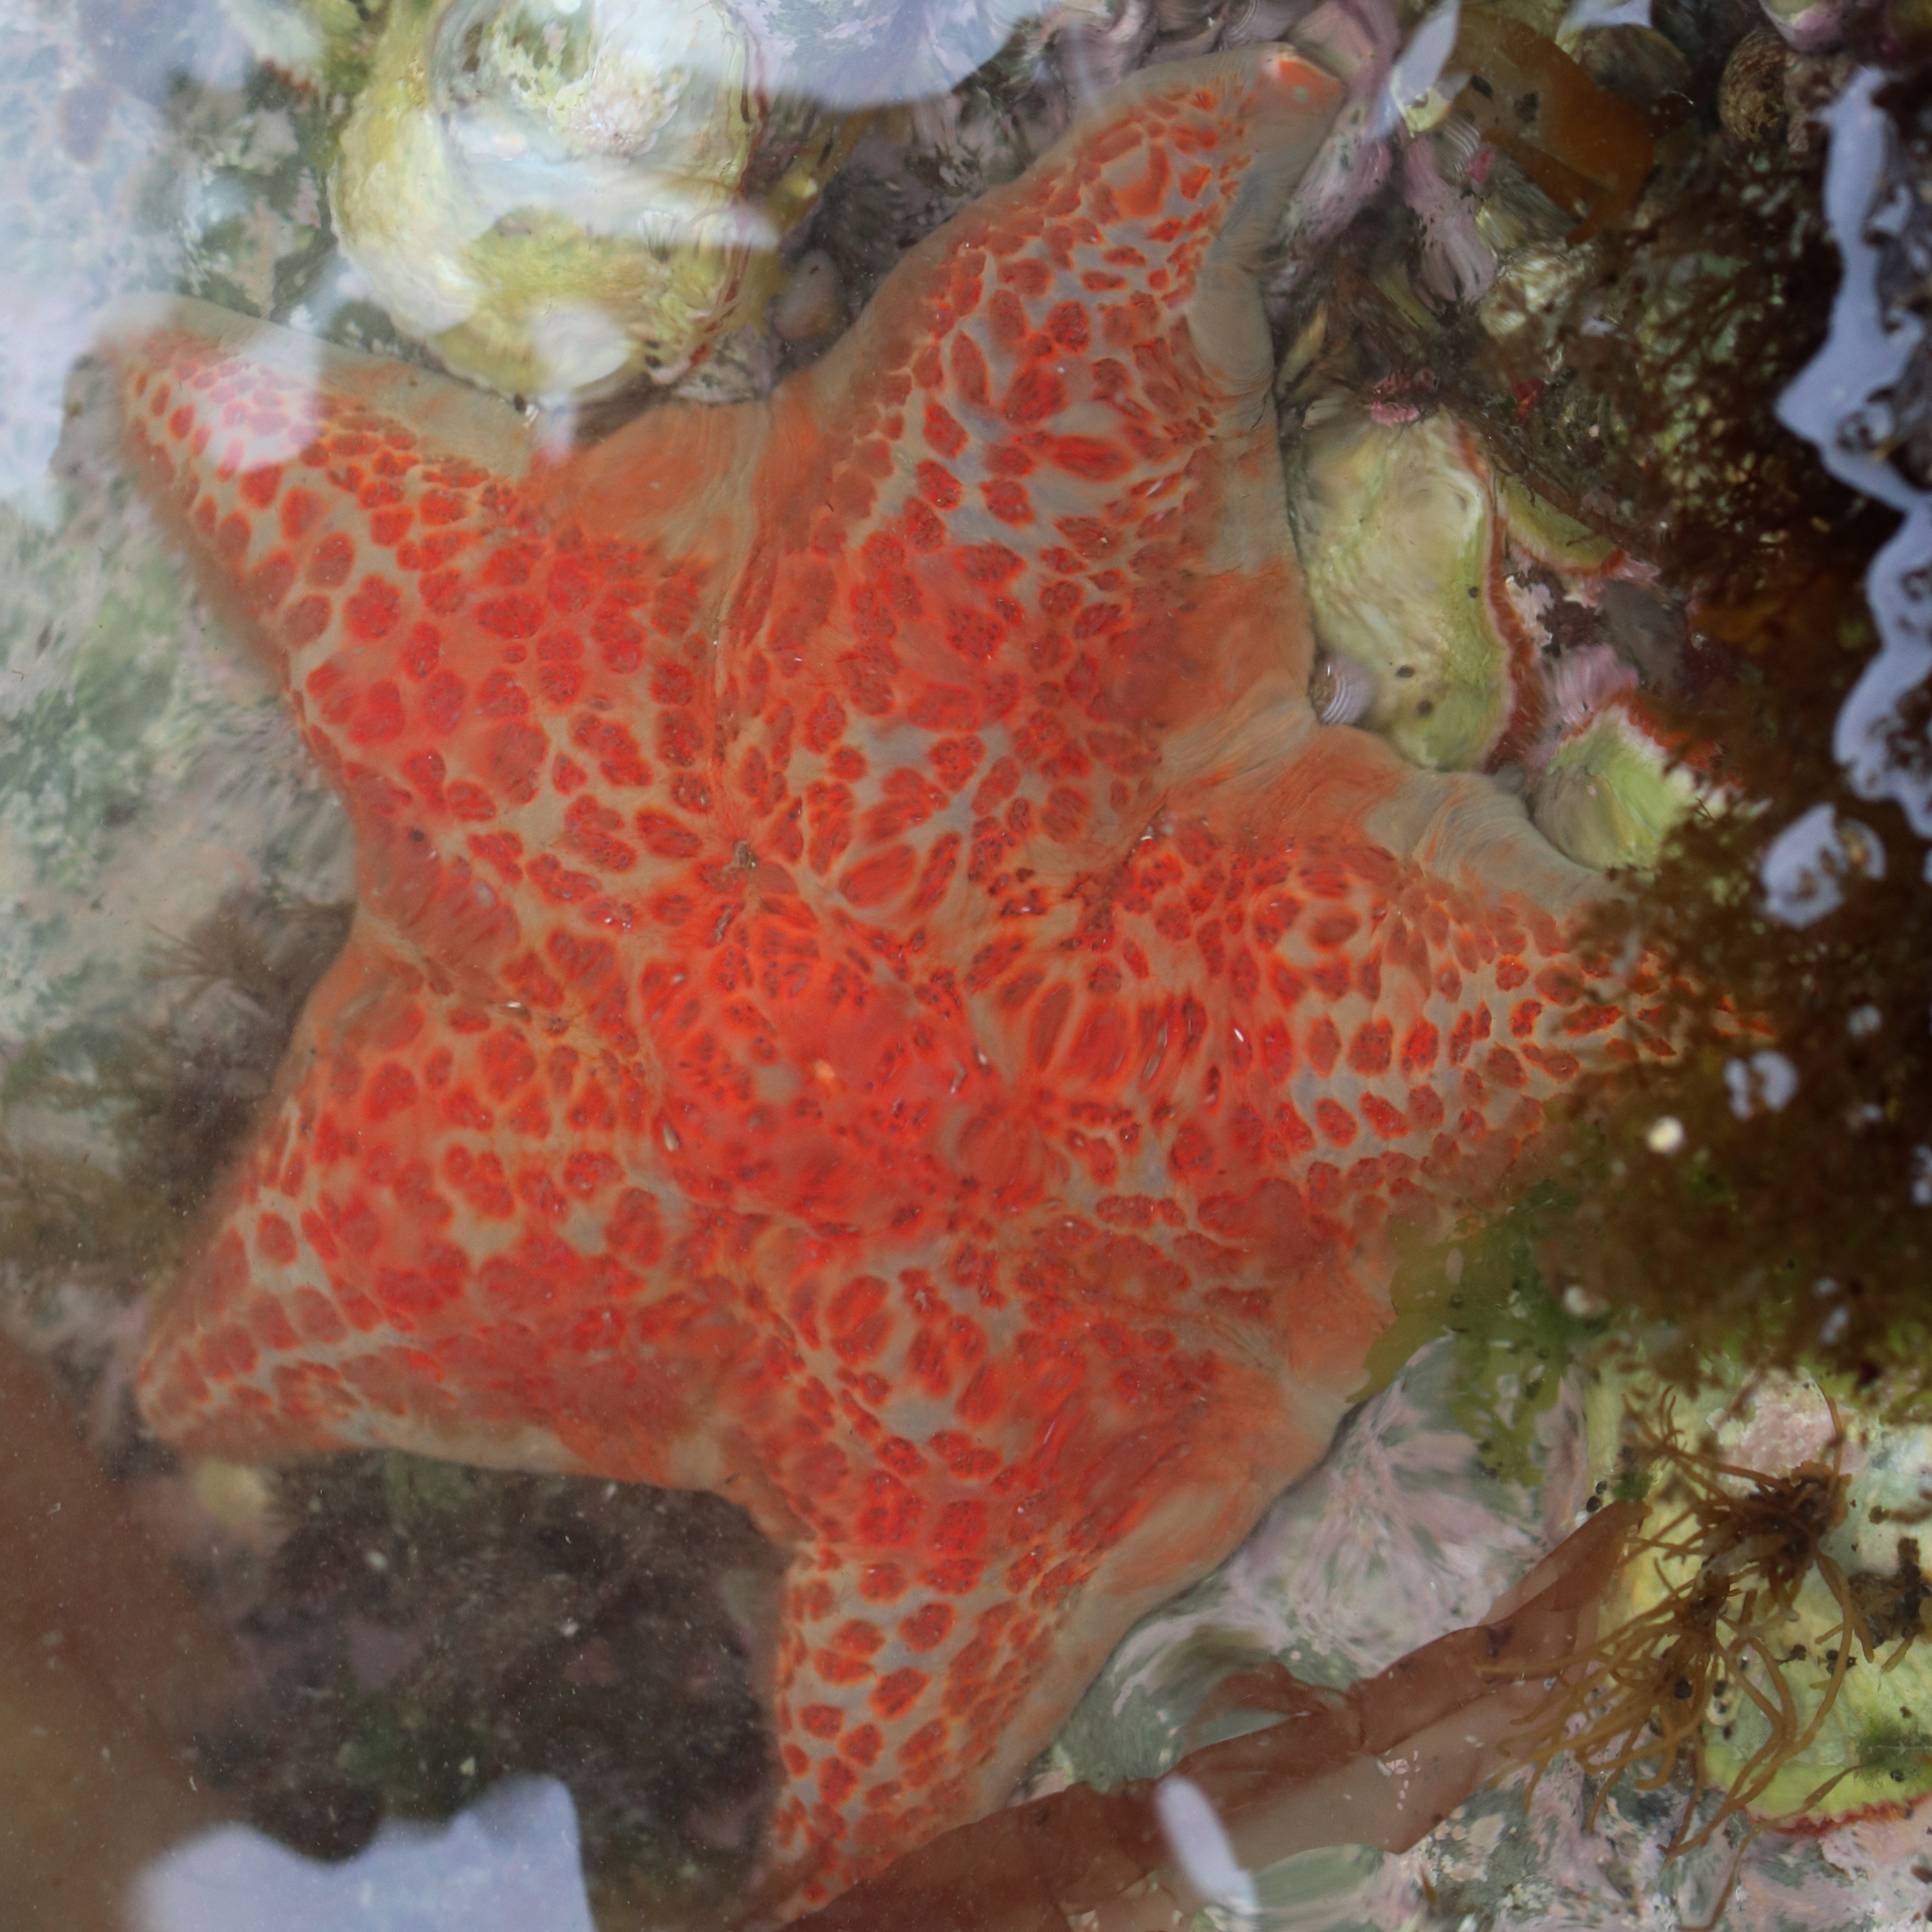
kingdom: Animalia
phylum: Echinodermata
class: Asteroidea
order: Valvatida
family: Asteropseidae
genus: Dermasterias
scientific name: Dermasterias imbricata
